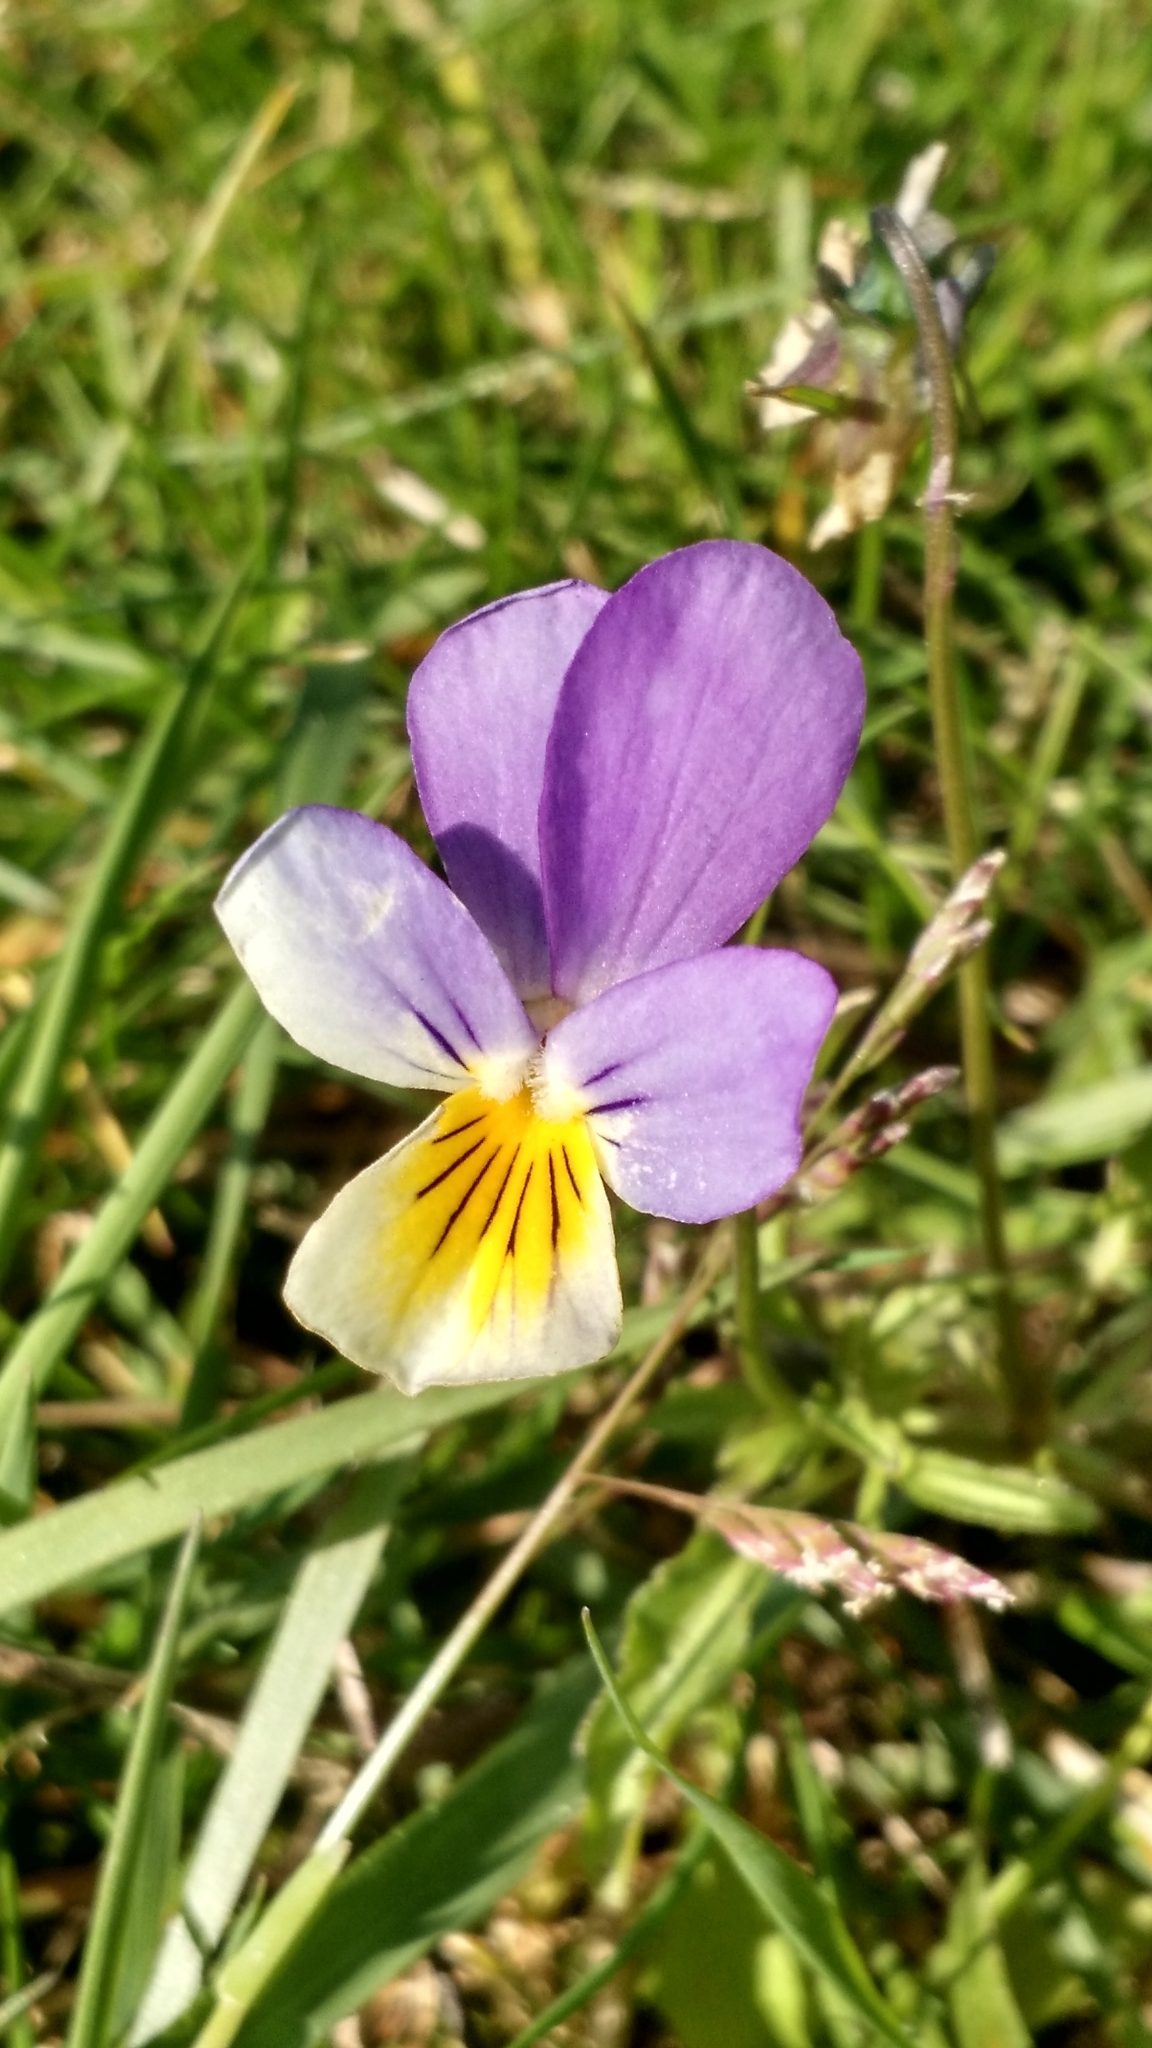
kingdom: Plantae
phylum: Tracheophyta
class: Magnoliopsida
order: Malpighiales
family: Violaceae
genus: Viola
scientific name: Viola tricolor
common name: Pansy
